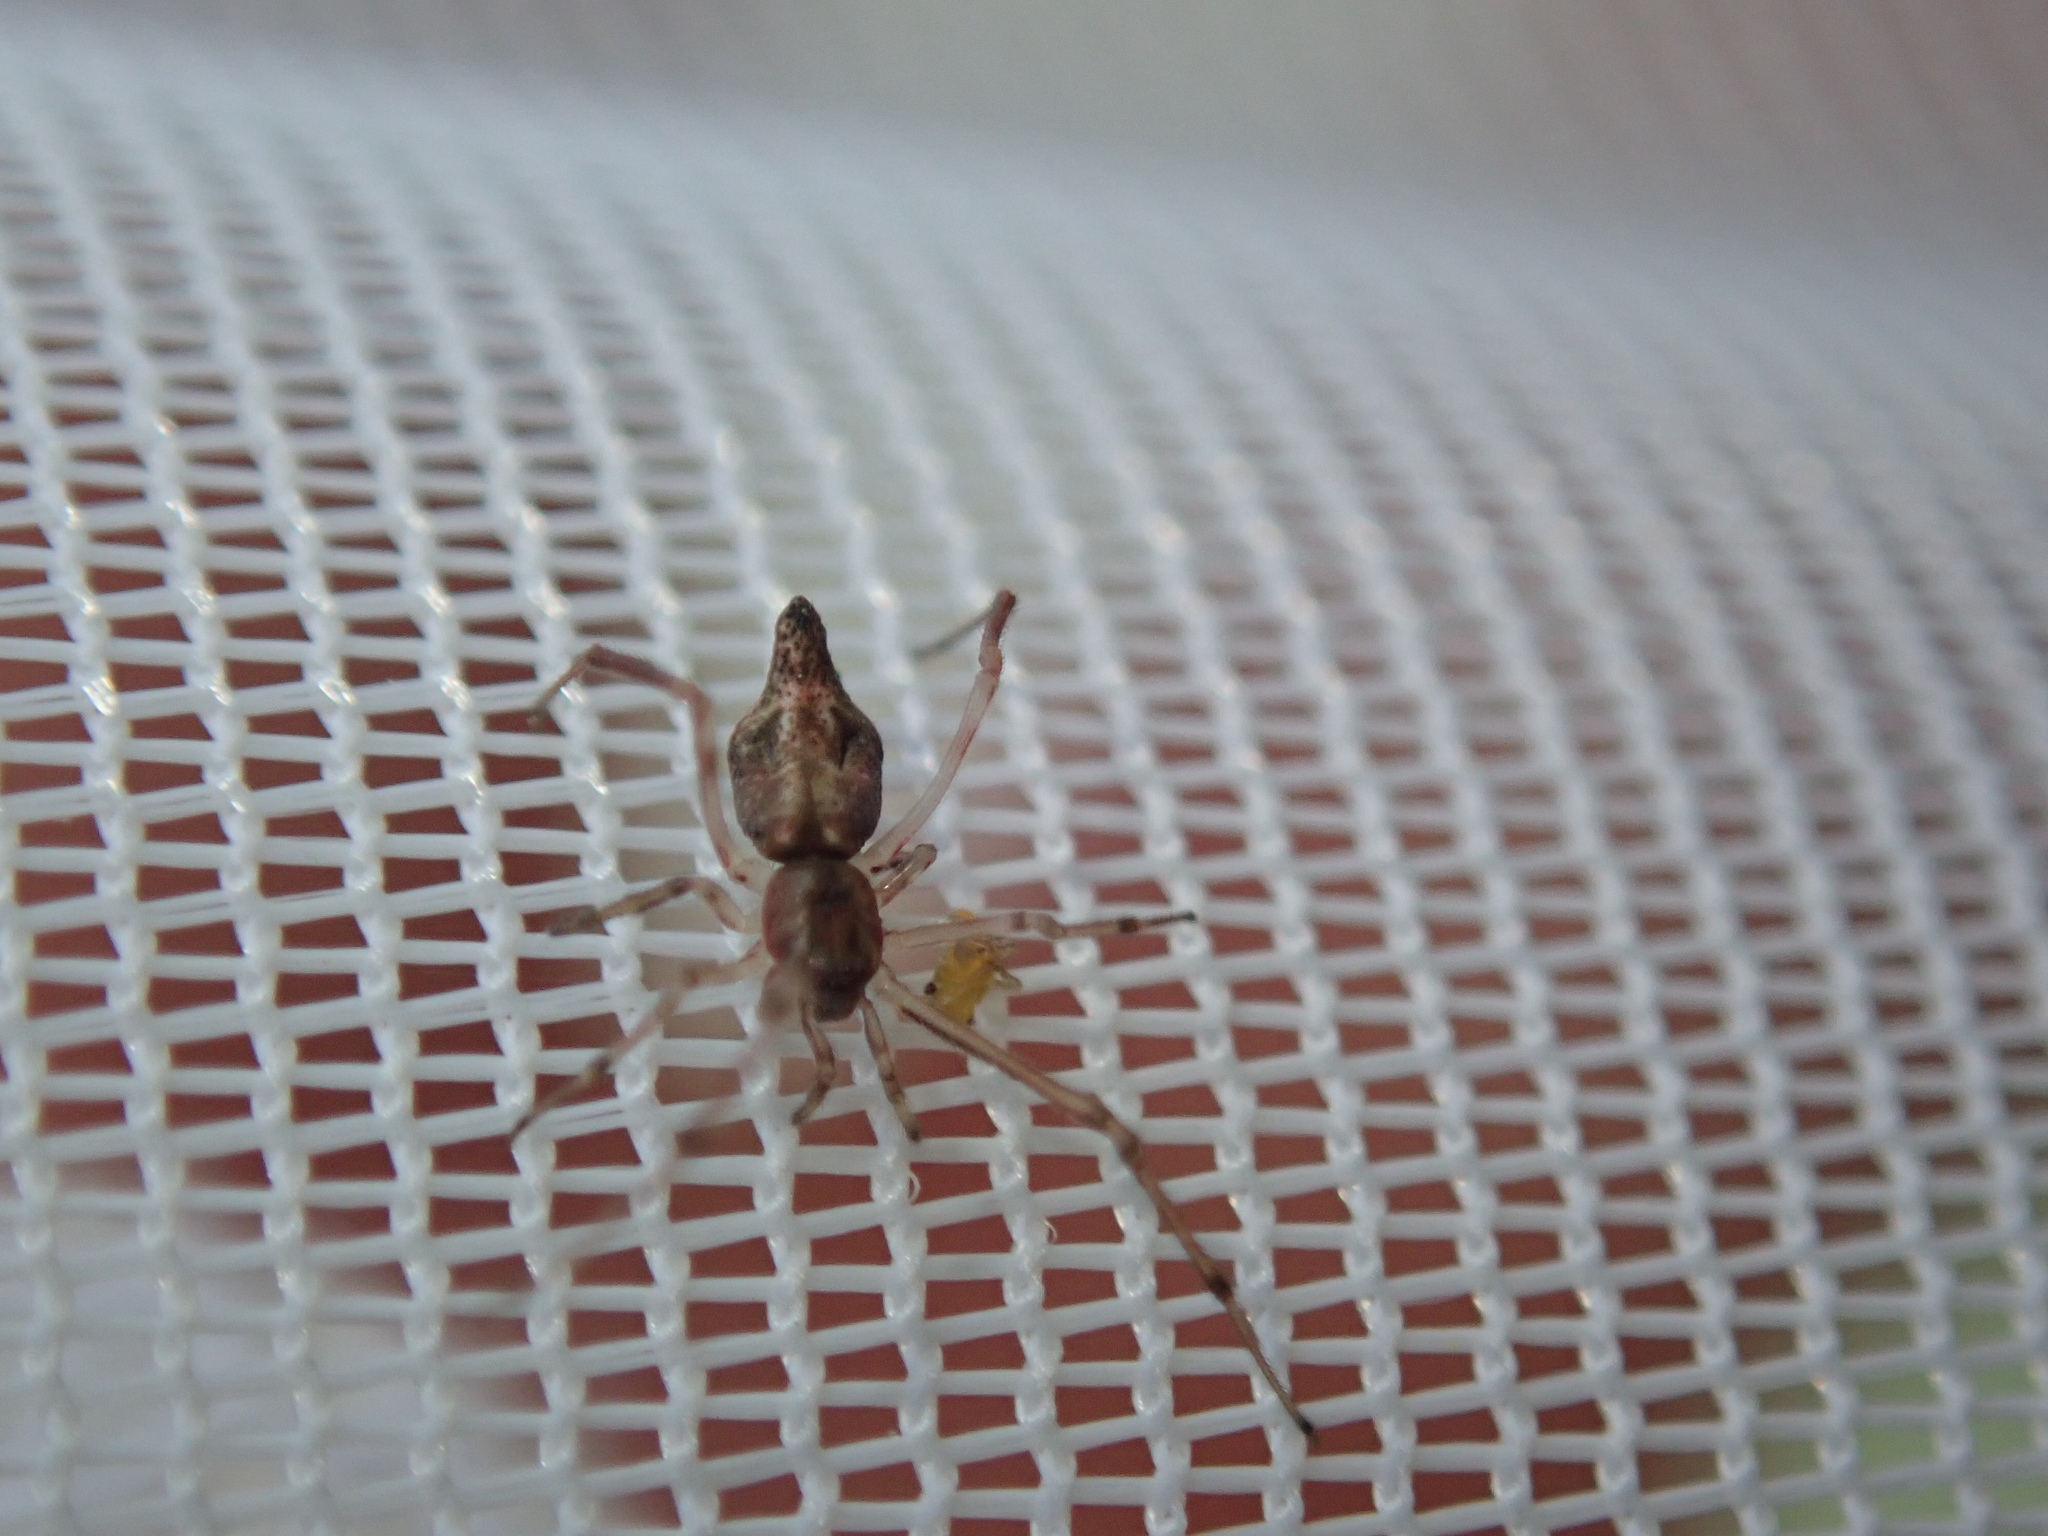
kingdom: Animalia
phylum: Arthropoda
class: Arachnida
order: Araneae
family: Theridiidae
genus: Moneta
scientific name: Moneta conifera
